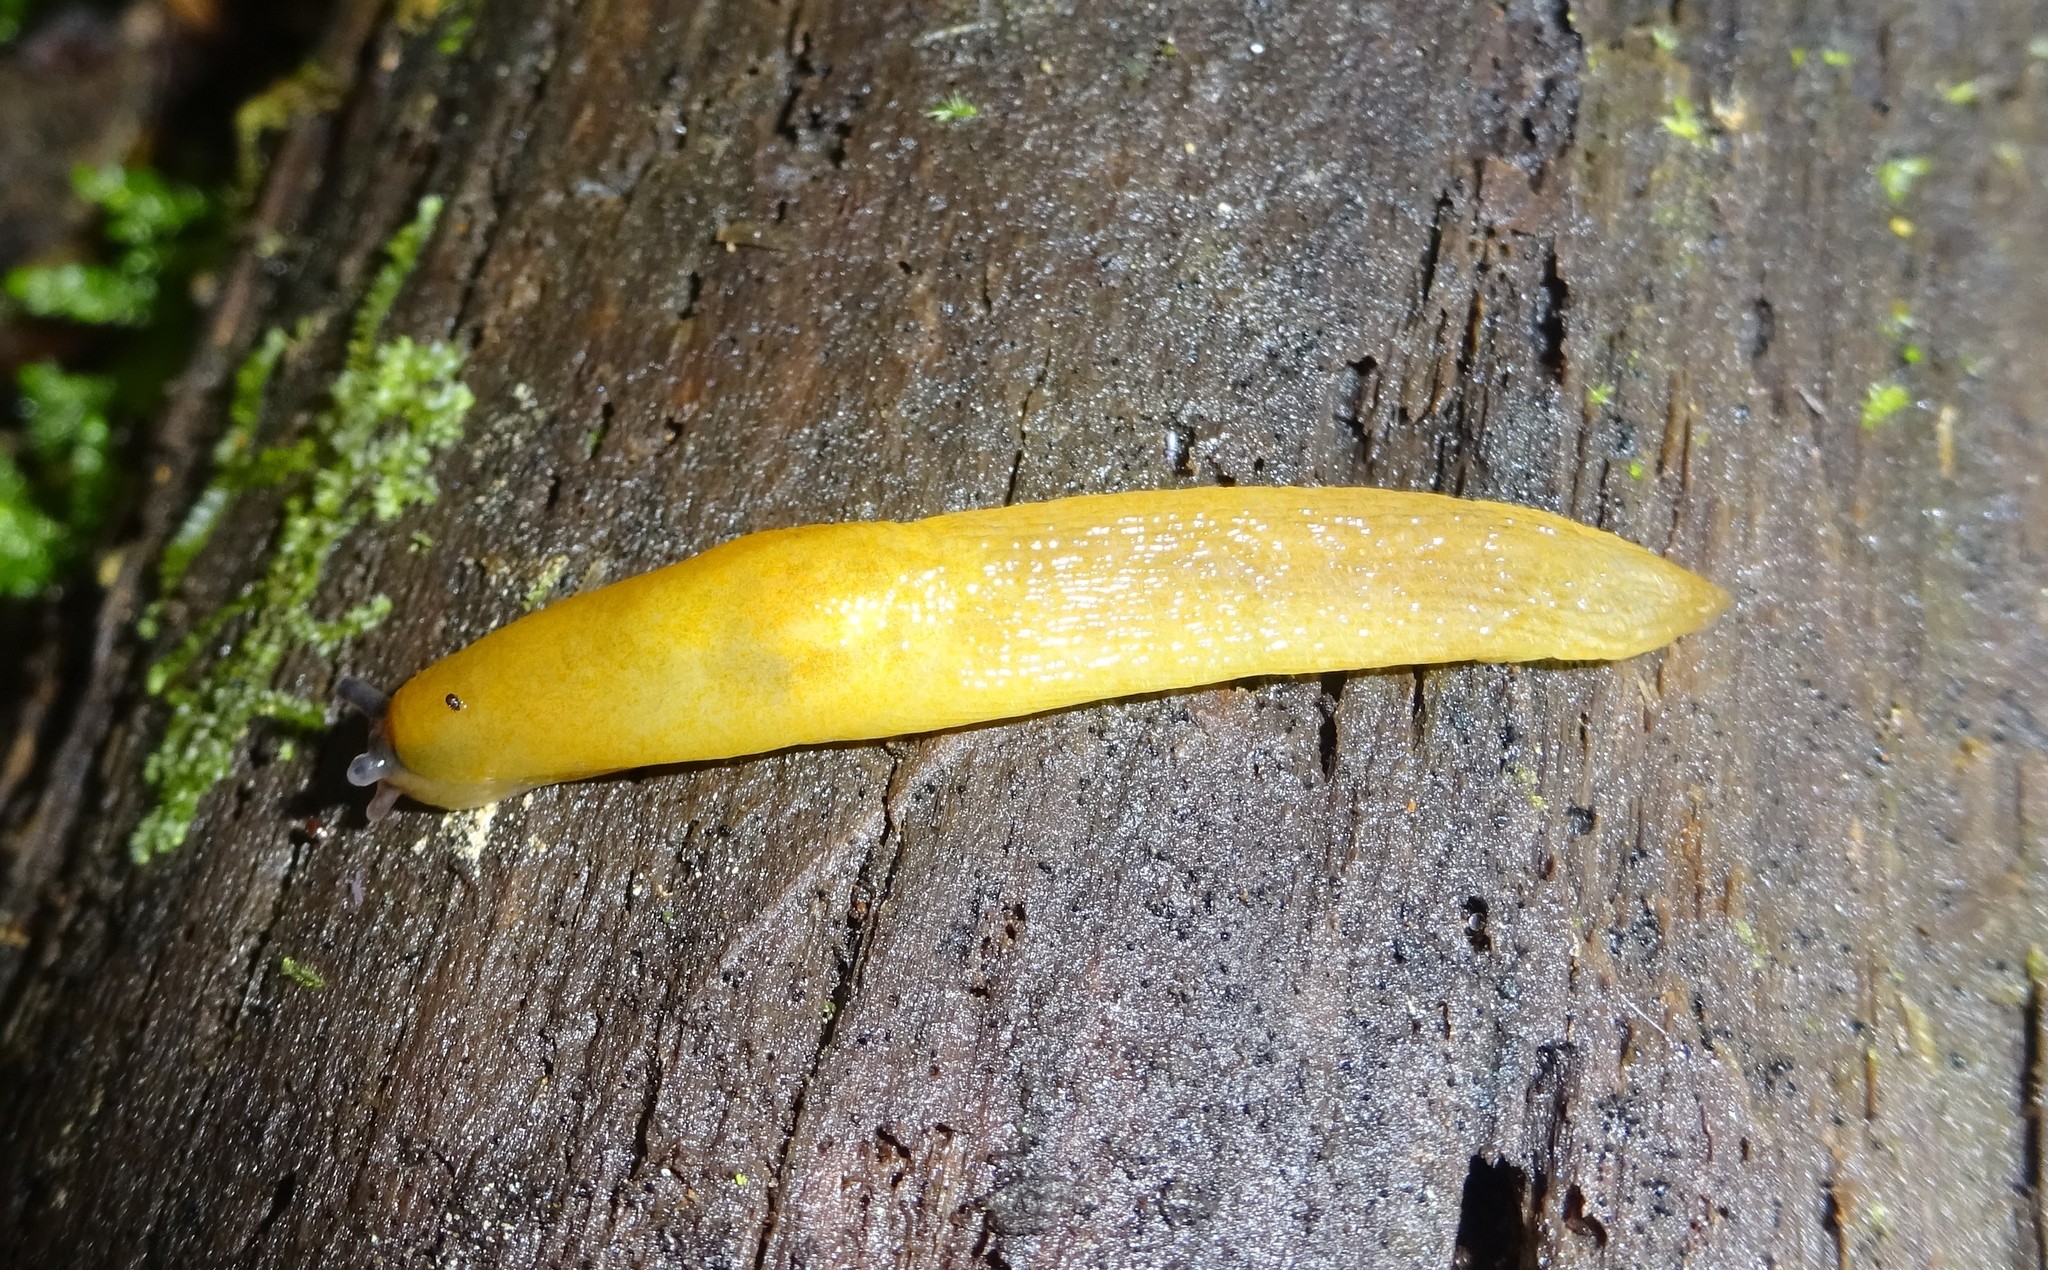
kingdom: Animalia
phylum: Mollusca
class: Gastropoda
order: Stylommatophora
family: Limacidae
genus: Malacolimax
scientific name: Malacolimax tenellus
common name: Lemon slug
